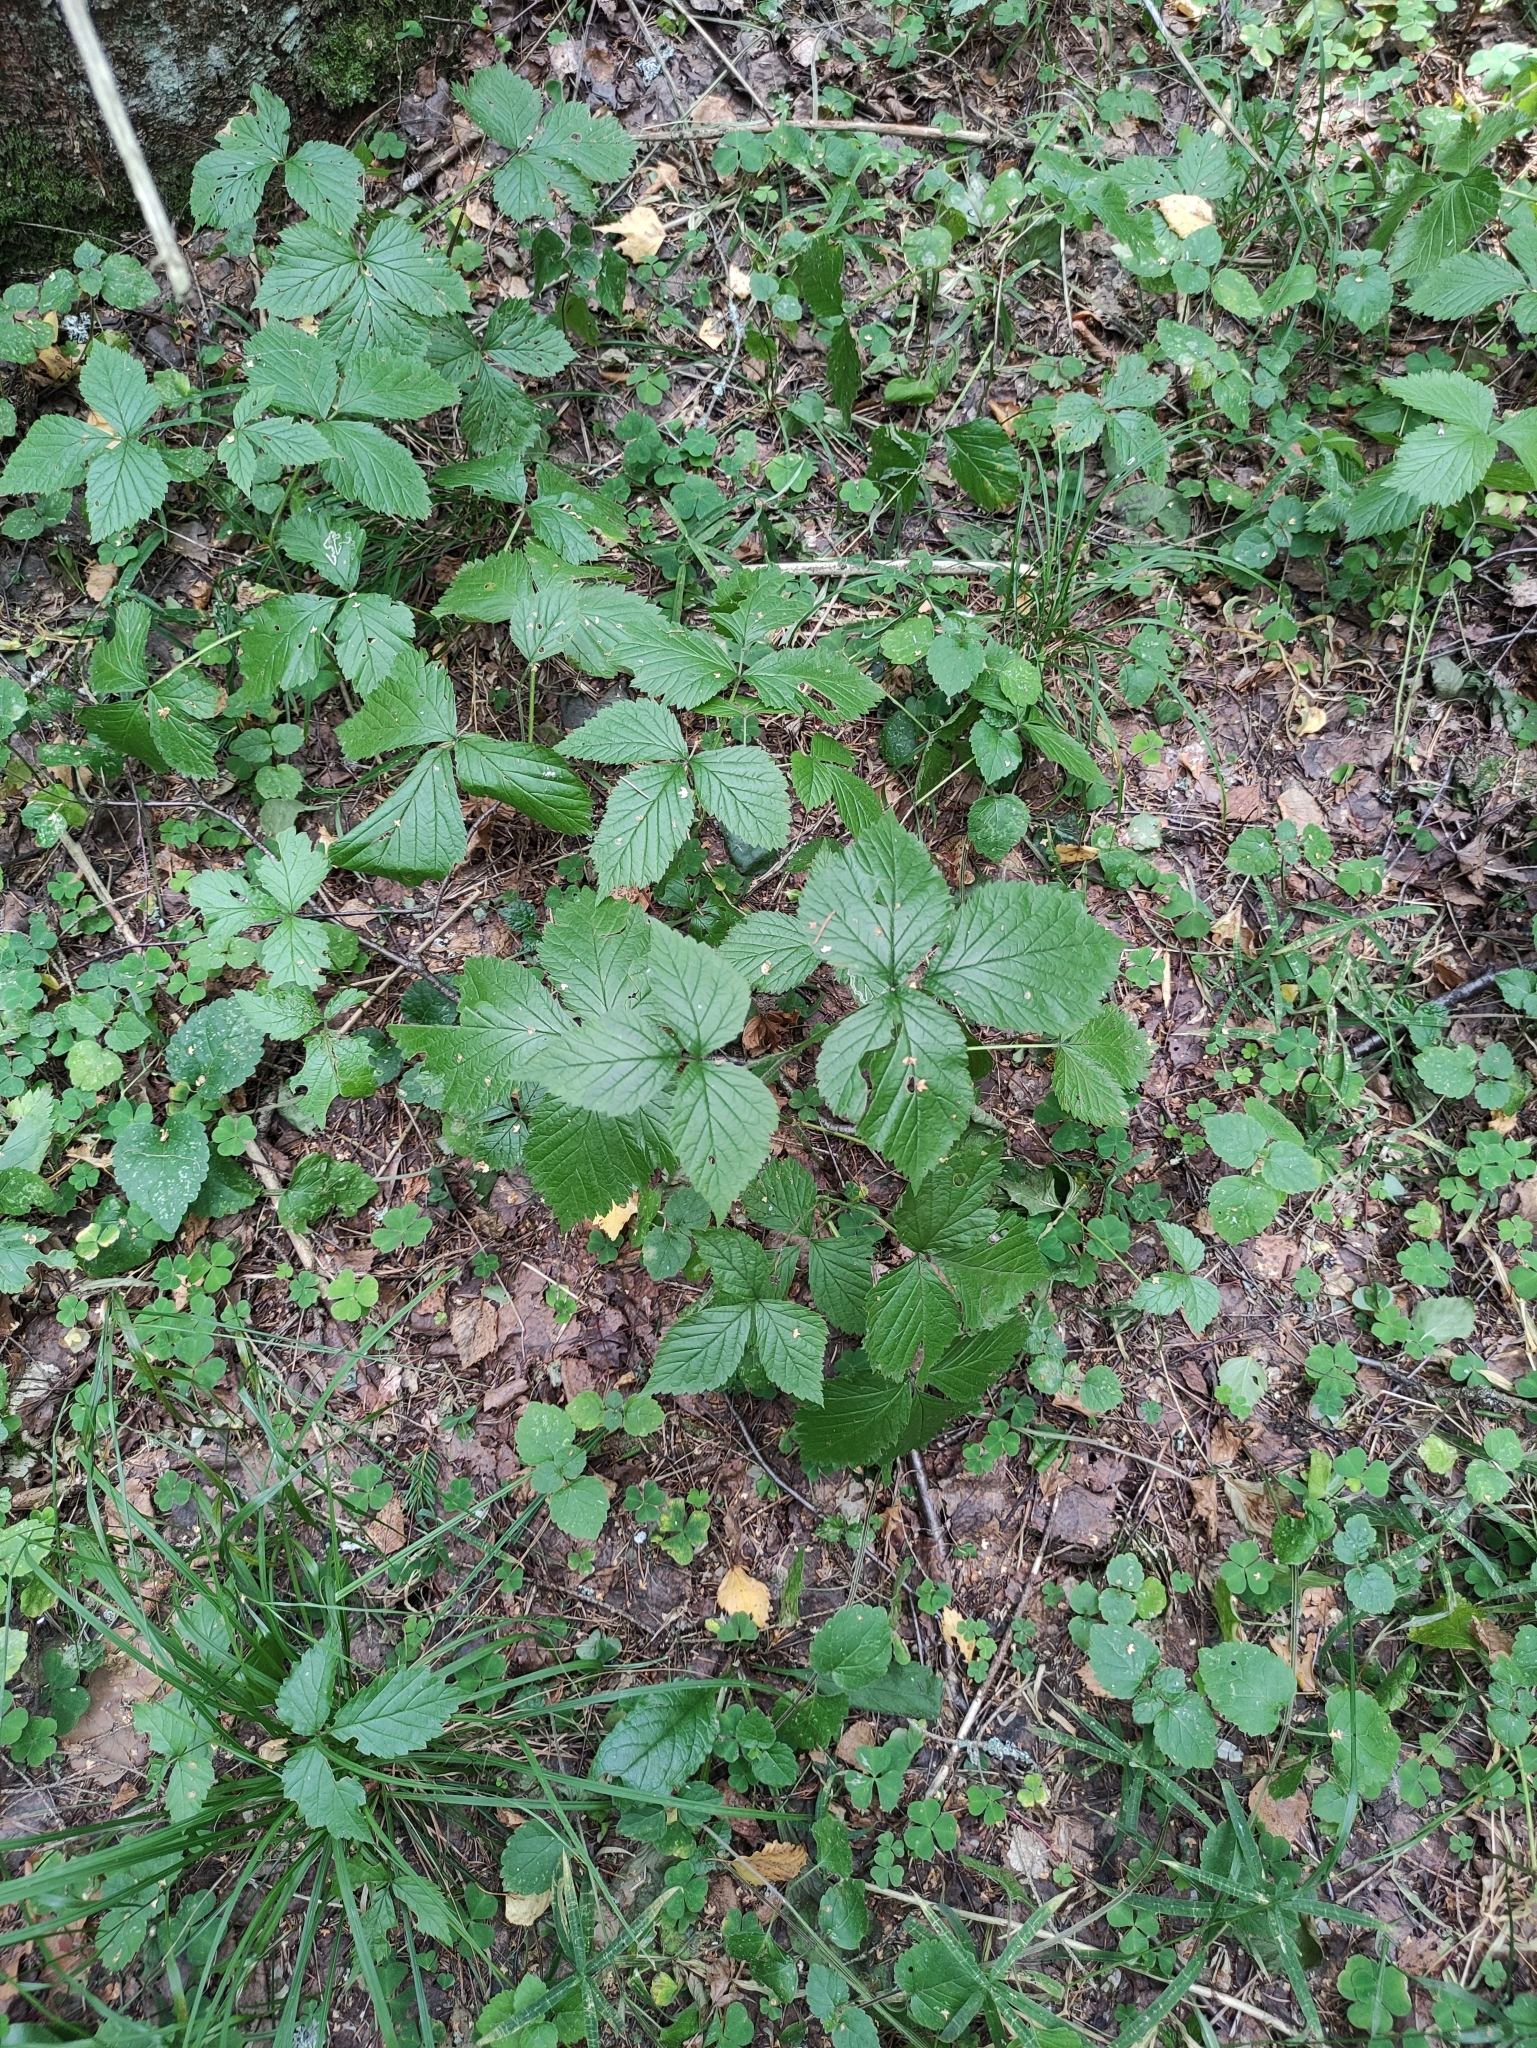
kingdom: Plantae
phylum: Tracheophyta
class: Magnoliopsida
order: Rosales
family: Rosaceae
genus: Rubus
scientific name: Rubus saxatilis
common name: Stone bramble
